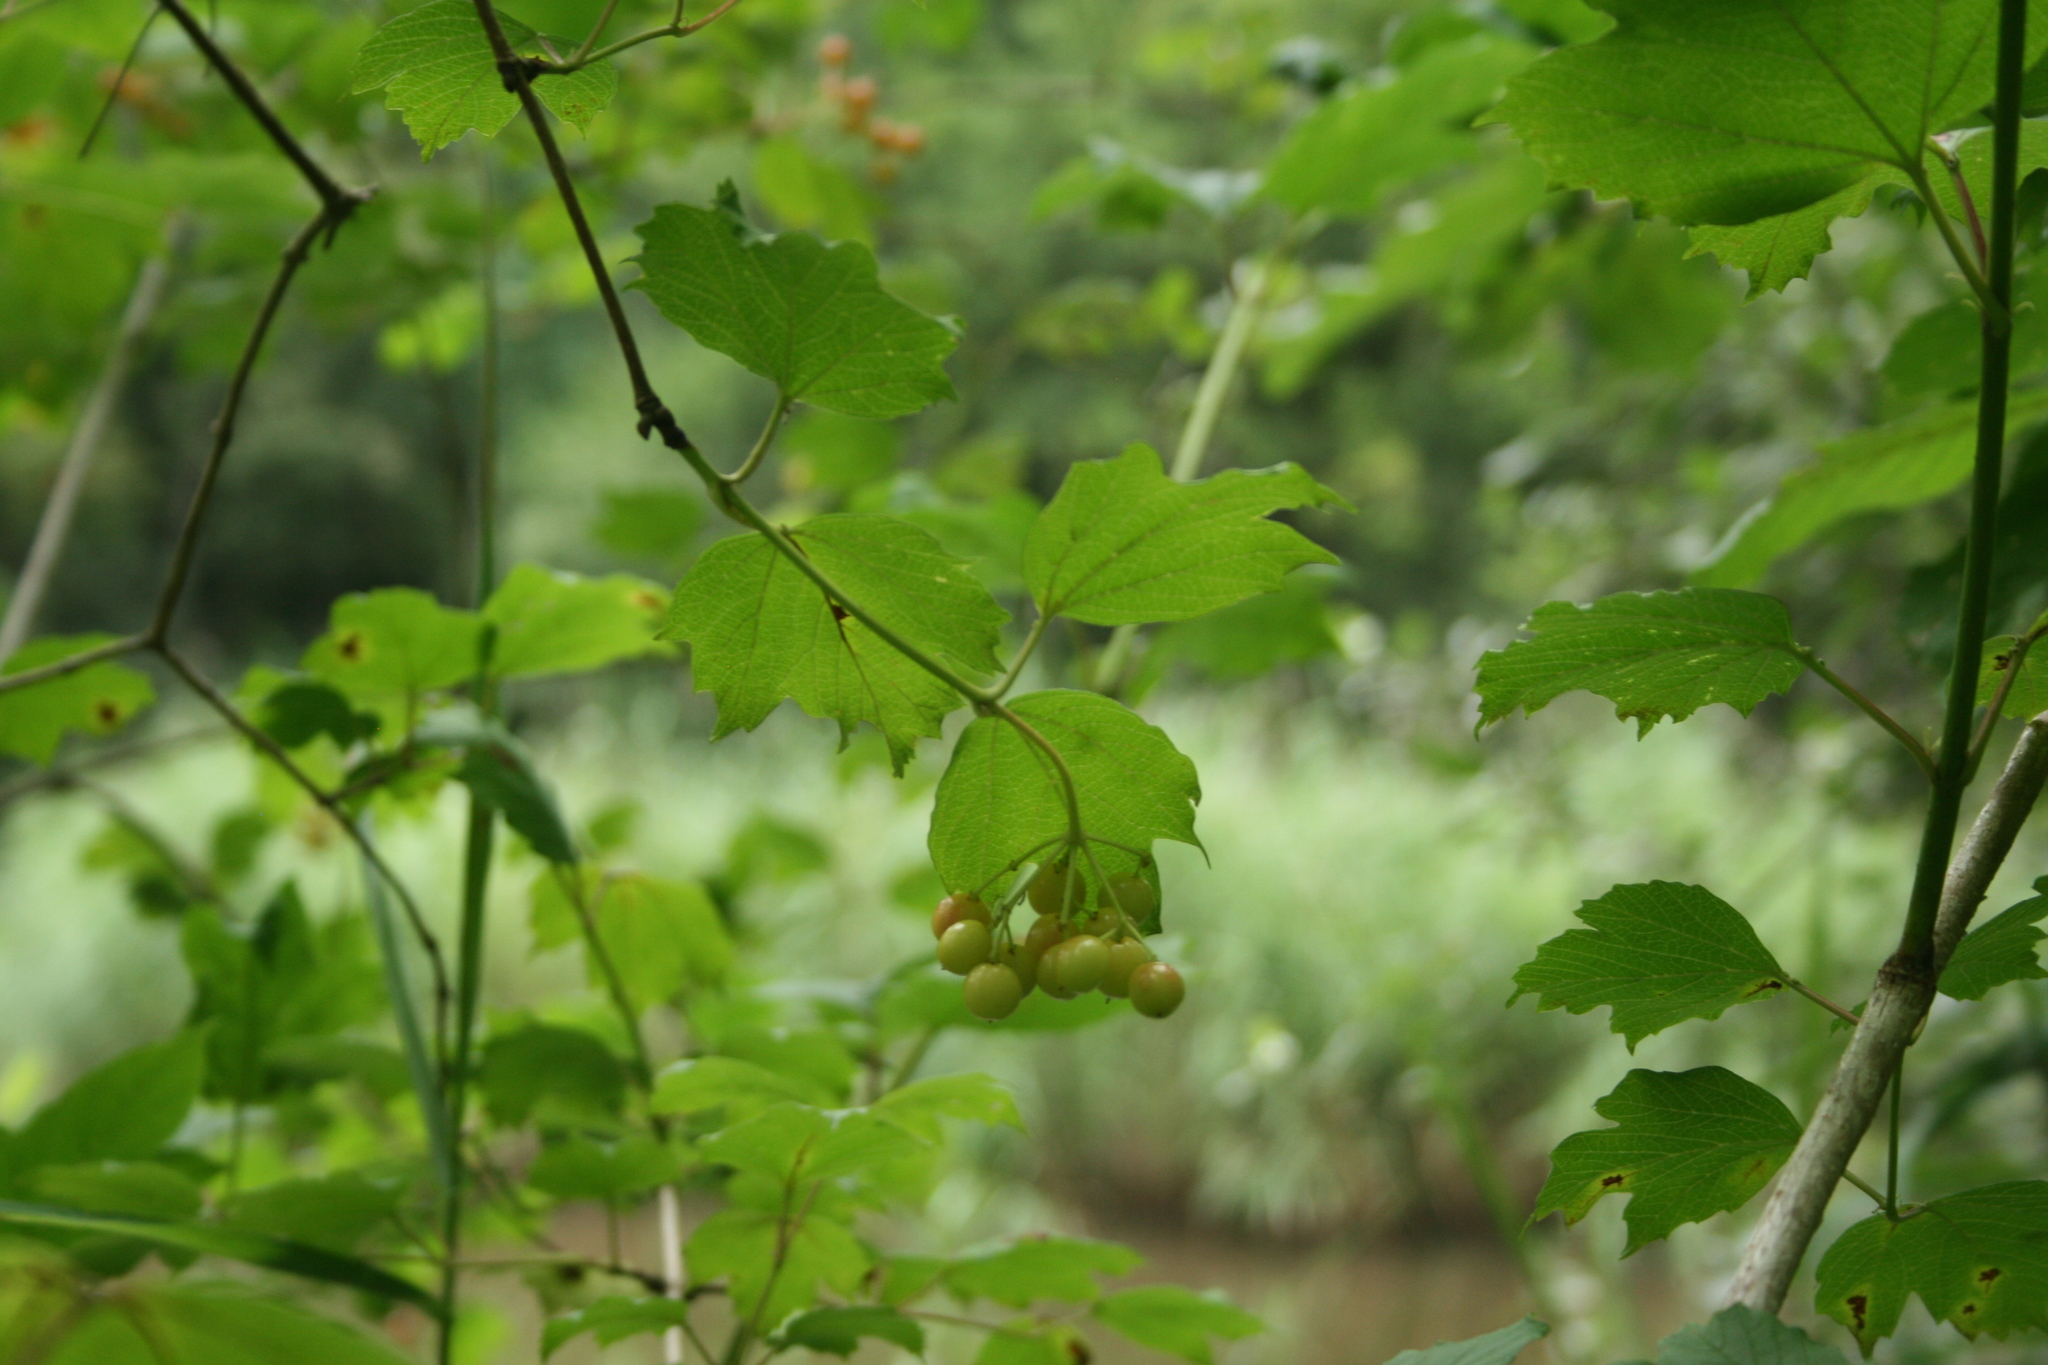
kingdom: Plantae
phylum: Tracheophyta
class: Magnoliopsida
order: Dipsacales
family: Viburnaceae
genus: Viburnum
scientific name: Viburnum opulus
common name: Guelder-rose
